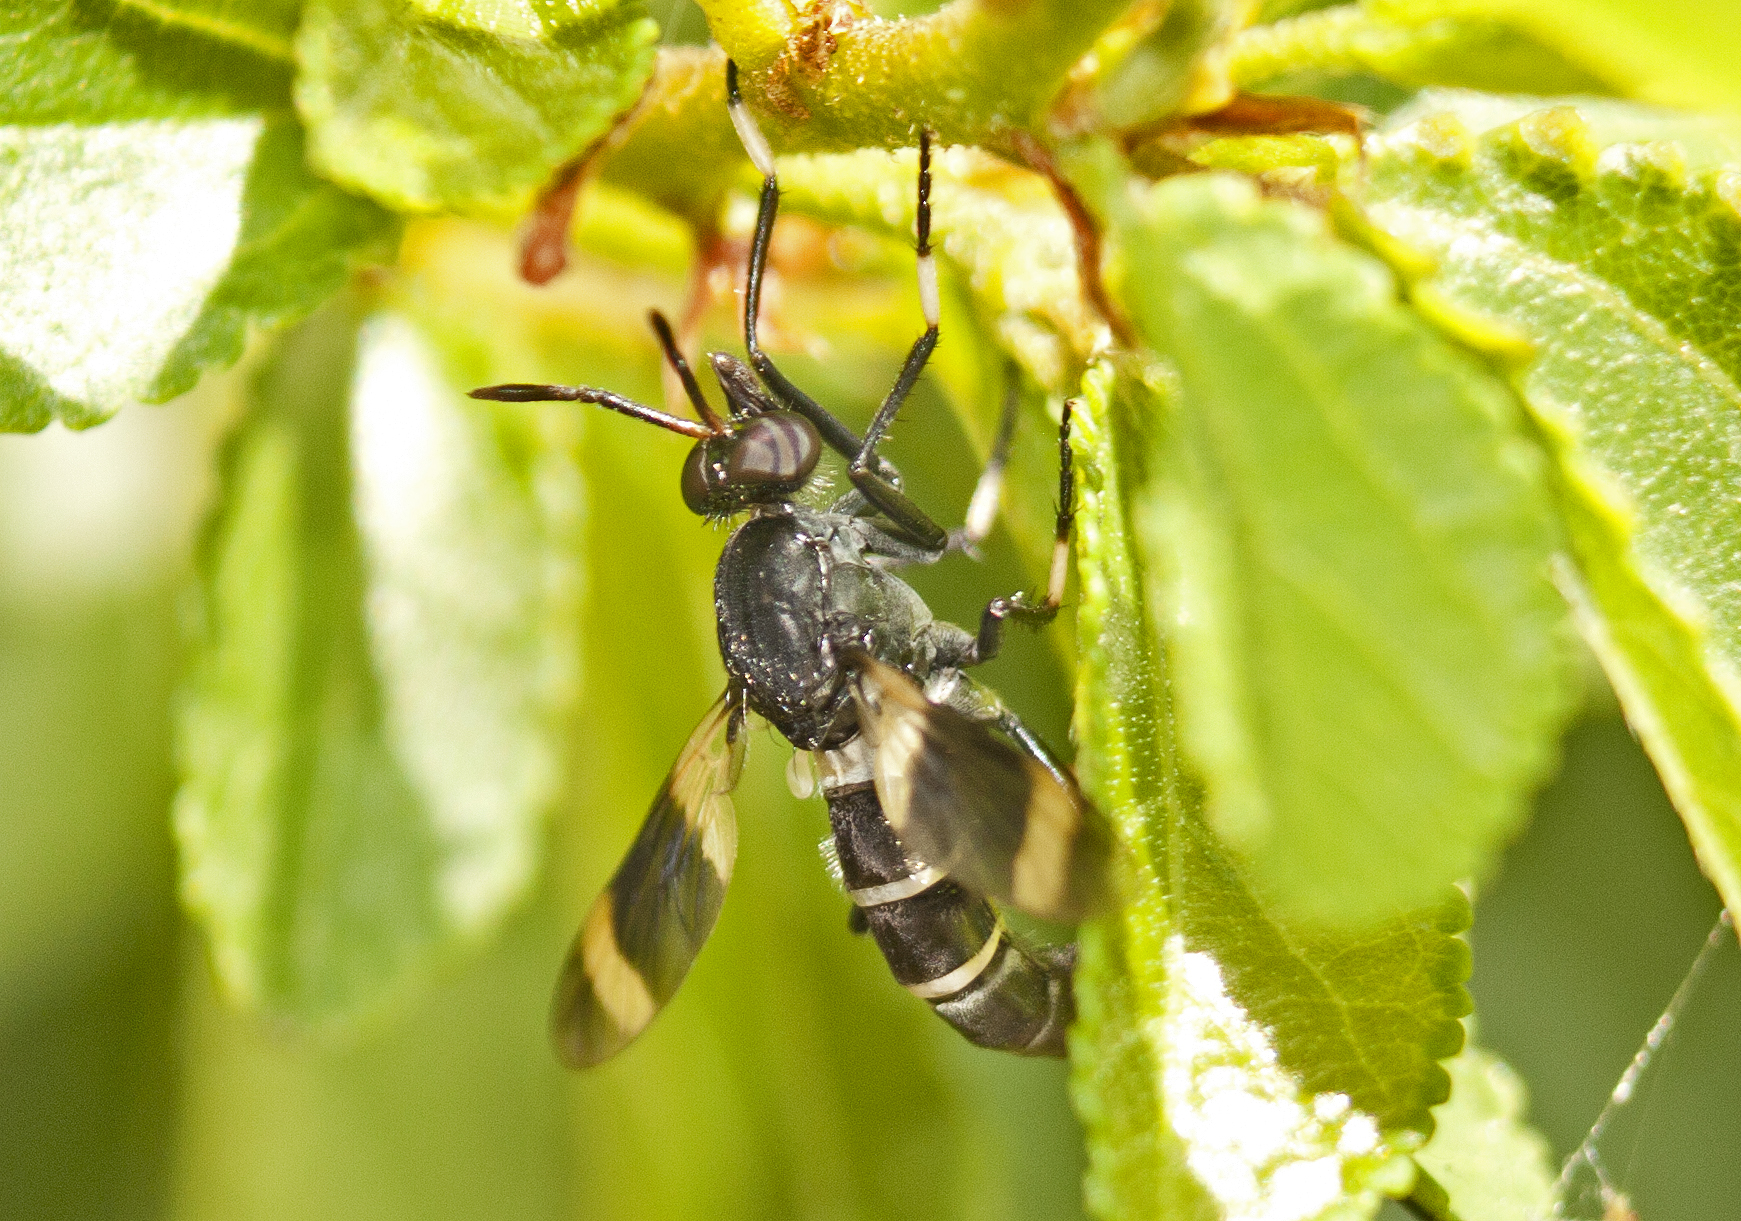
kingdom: Animalia
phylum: Arthropoda
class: Insecta
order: Diptera
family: Therevidae
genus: Agapophytus
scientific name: Agapophytus albobasalis
